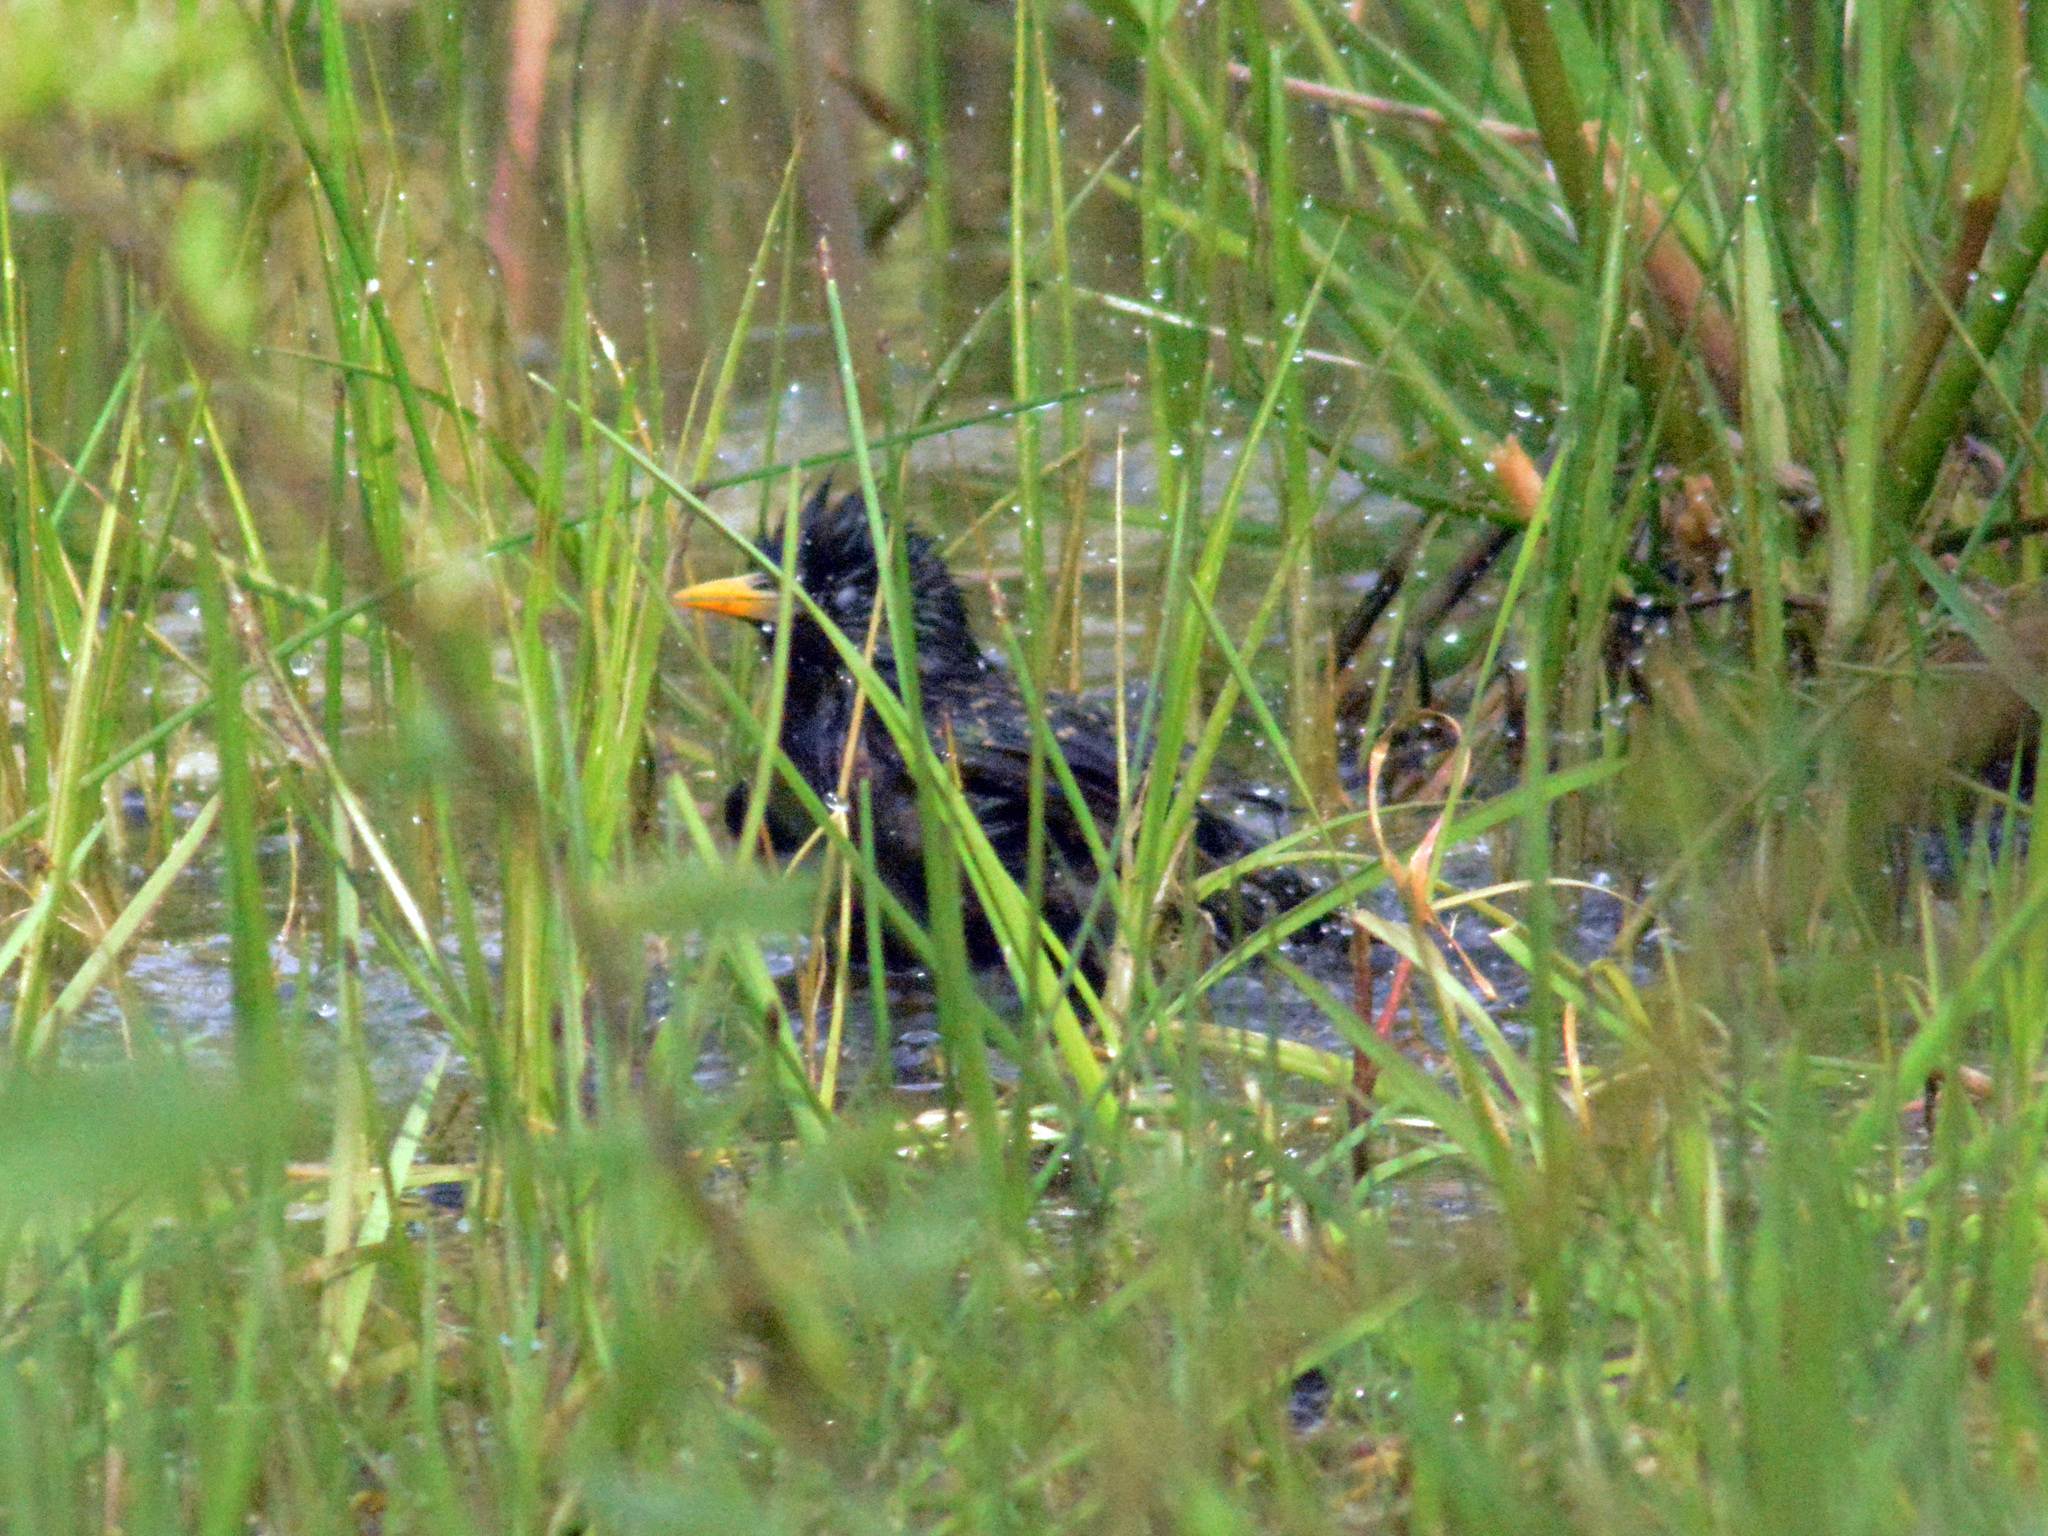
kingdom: Animalia
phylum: Chordata
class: Aves
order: Passeriformes
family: Sturnidae
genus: Sturnus
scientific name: Sturnus vulgaris
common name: Common starling
